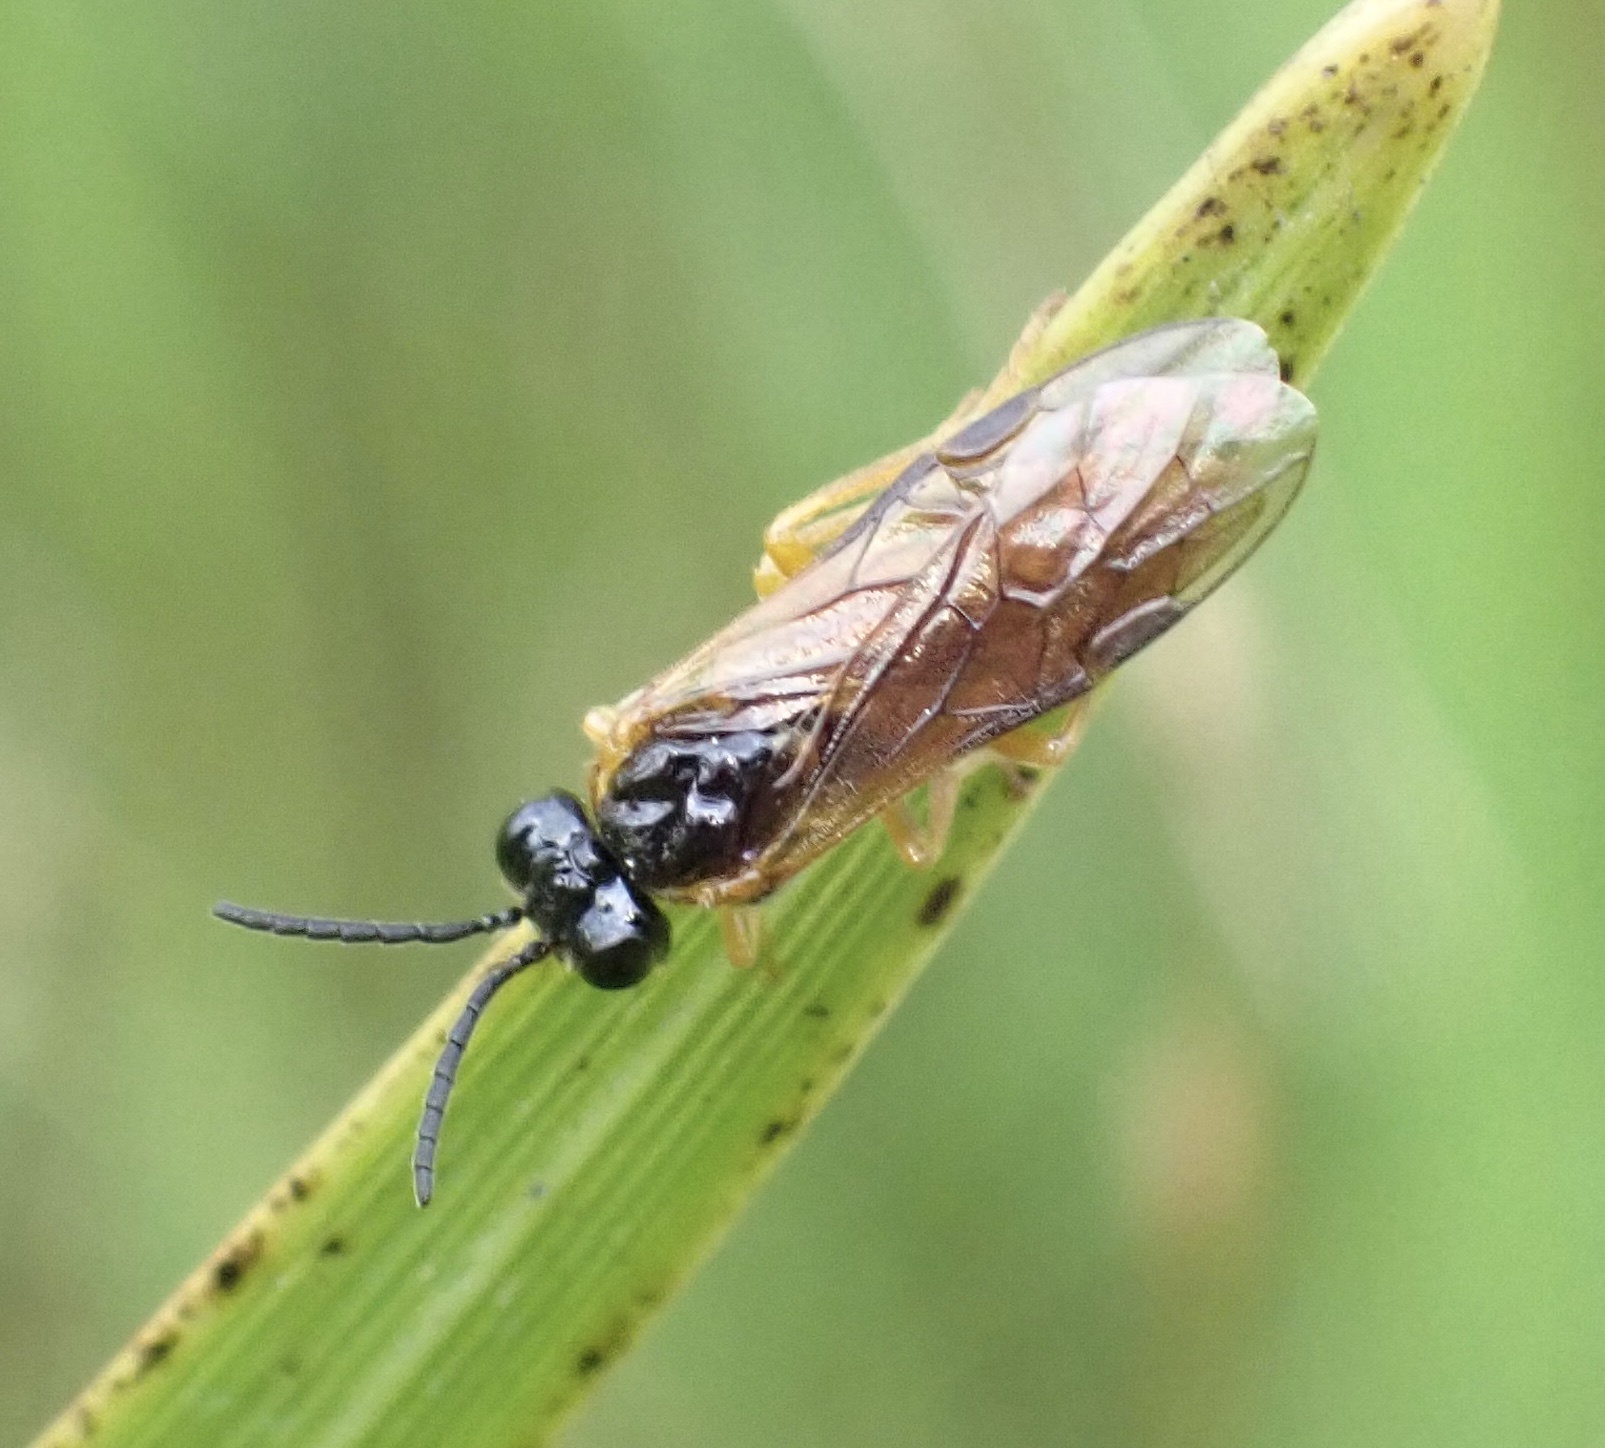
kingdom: Animalia
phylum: Arthropoda
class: Insecta
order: Hymenoptera
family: Tenthredinidae
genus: Selandria
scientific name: Selandria serva
